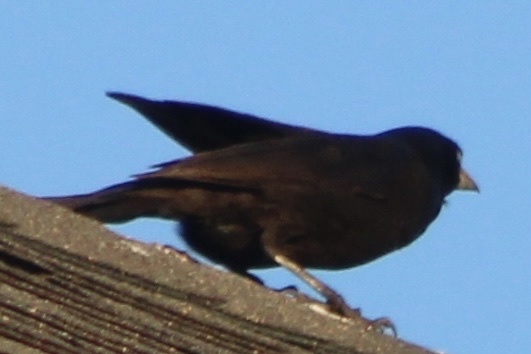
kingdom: Animalia
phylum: Chordata
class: Aves
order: Passeriformes
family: Icteridae
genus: Quiscalus
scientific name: Quiscalus quiscula
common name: Common grackle
